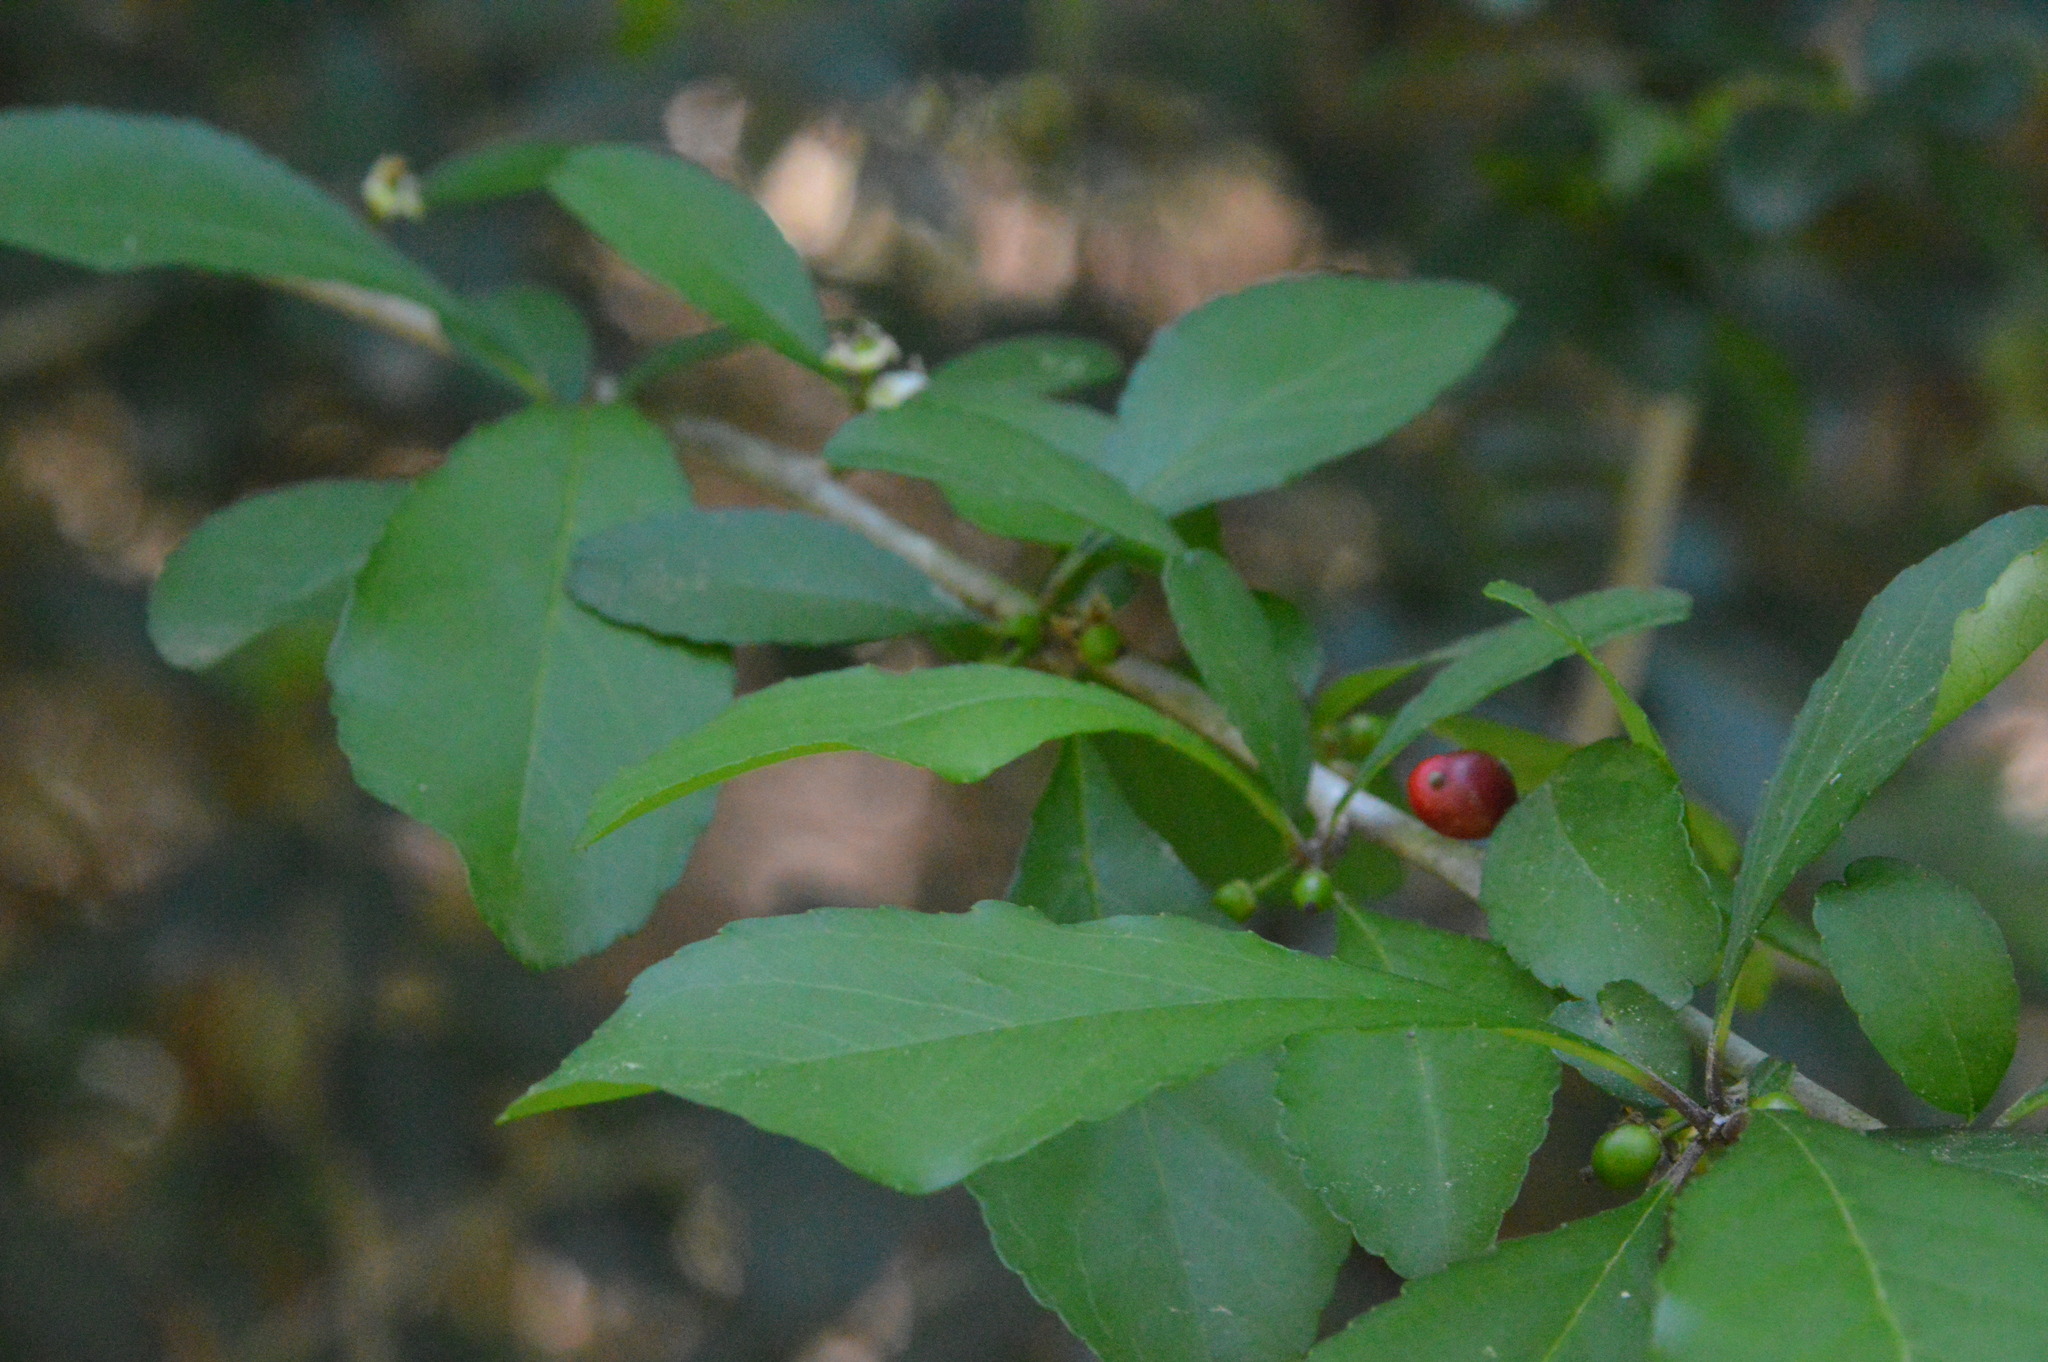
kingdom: Plantae
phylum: Tracheophyta
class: Magnoliopsida
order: Aquifoliales
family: Aquifoliaceae
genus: Ilex
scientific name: Ilex decidua
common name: Possum-haw
